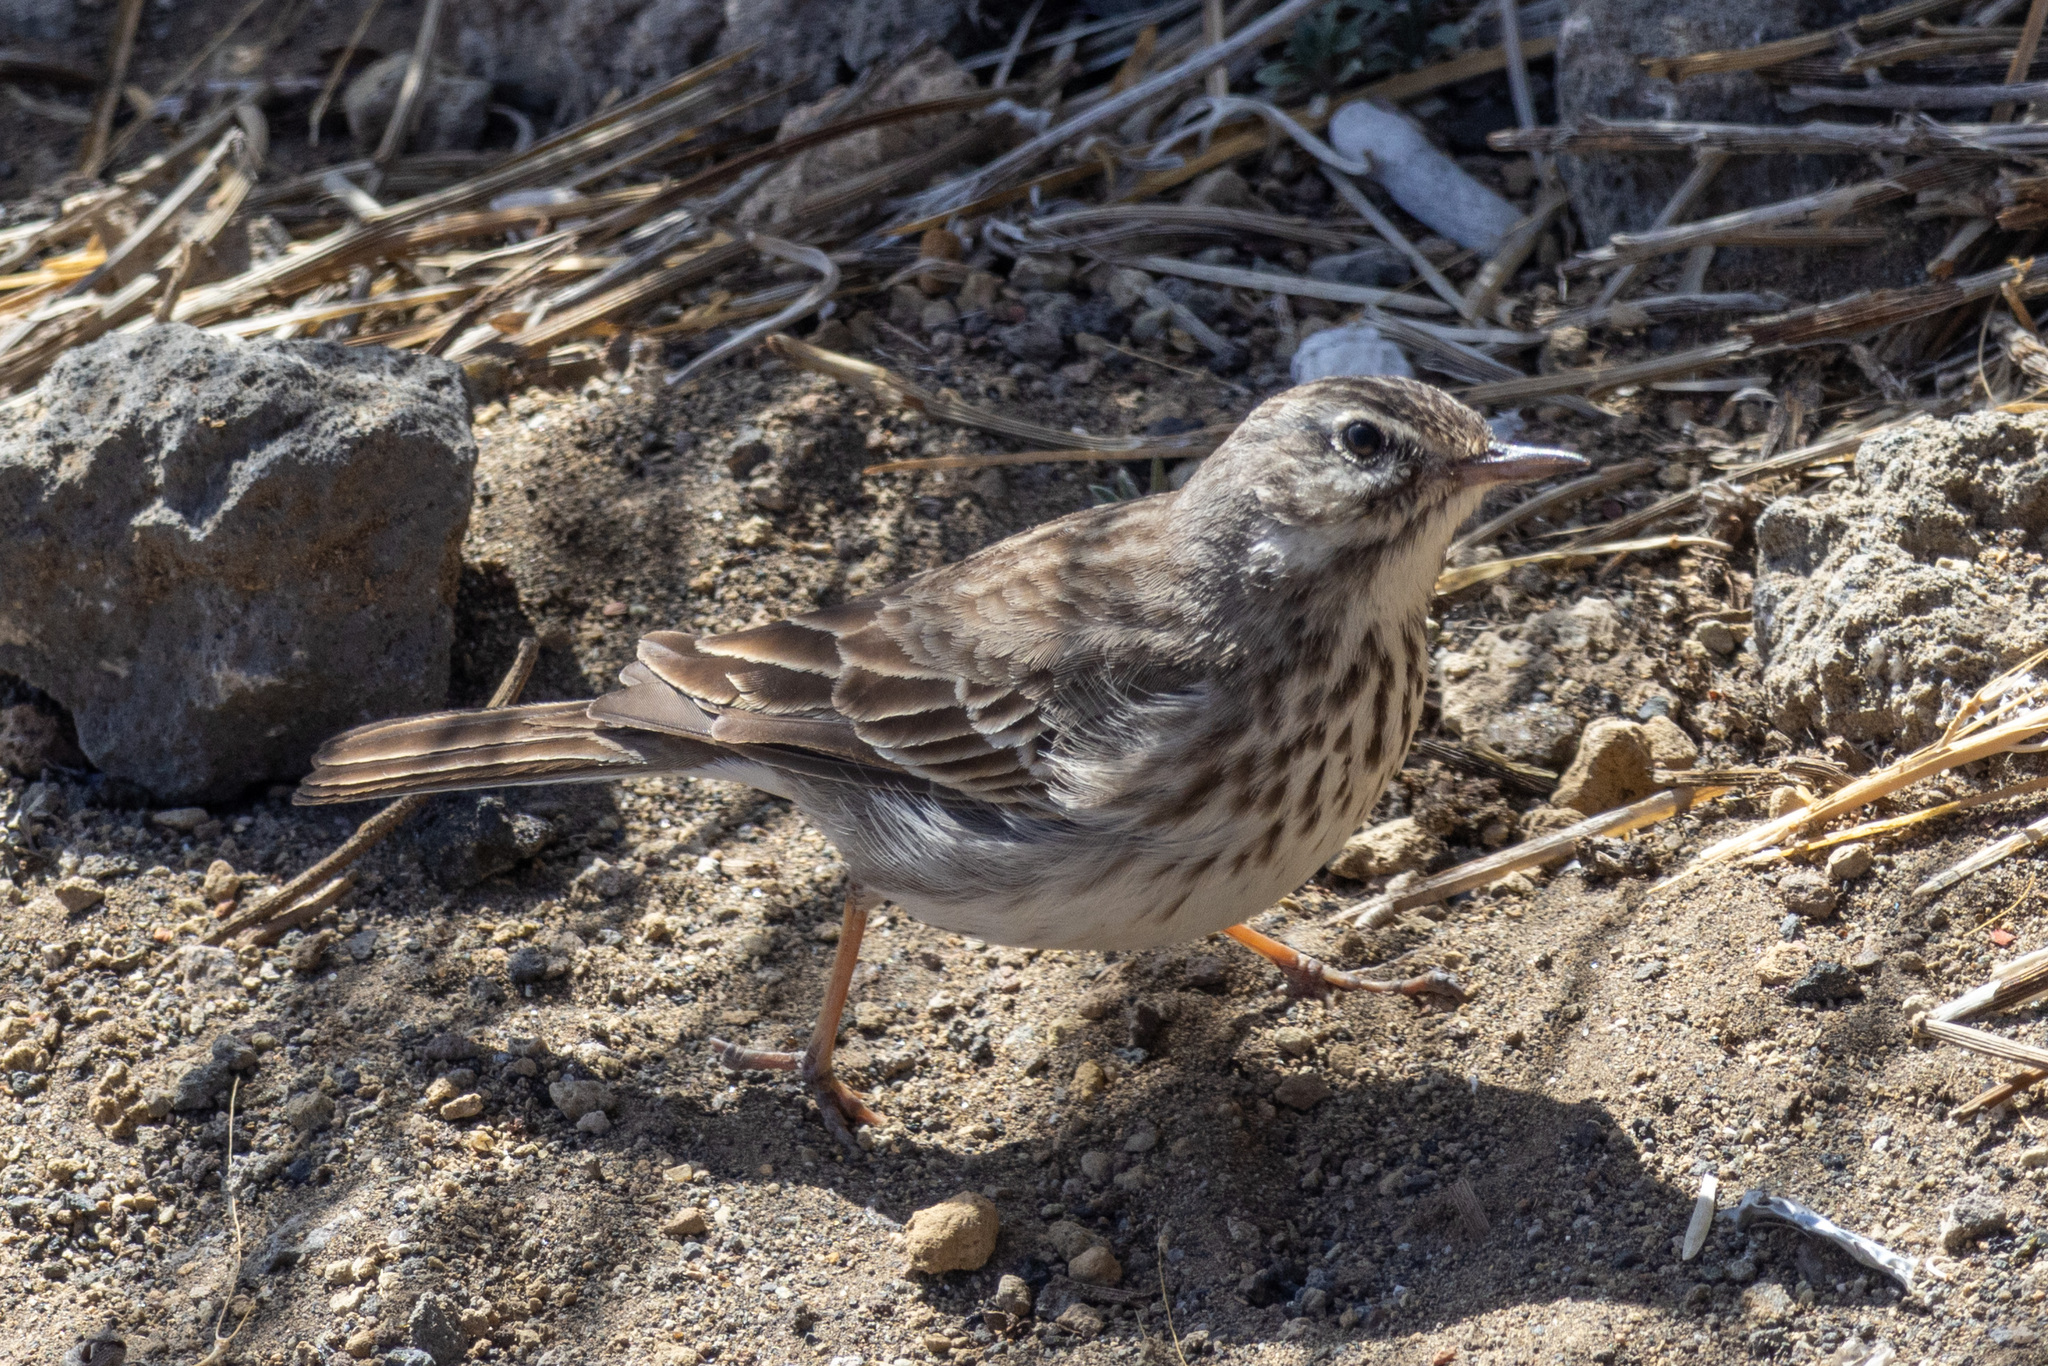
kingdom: Animalia
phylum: Chordata
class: Aves
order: Passeriformes
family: Motacillidae
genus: Anthus
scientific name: Anthus berthelotii
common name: Berthelot's pipit
